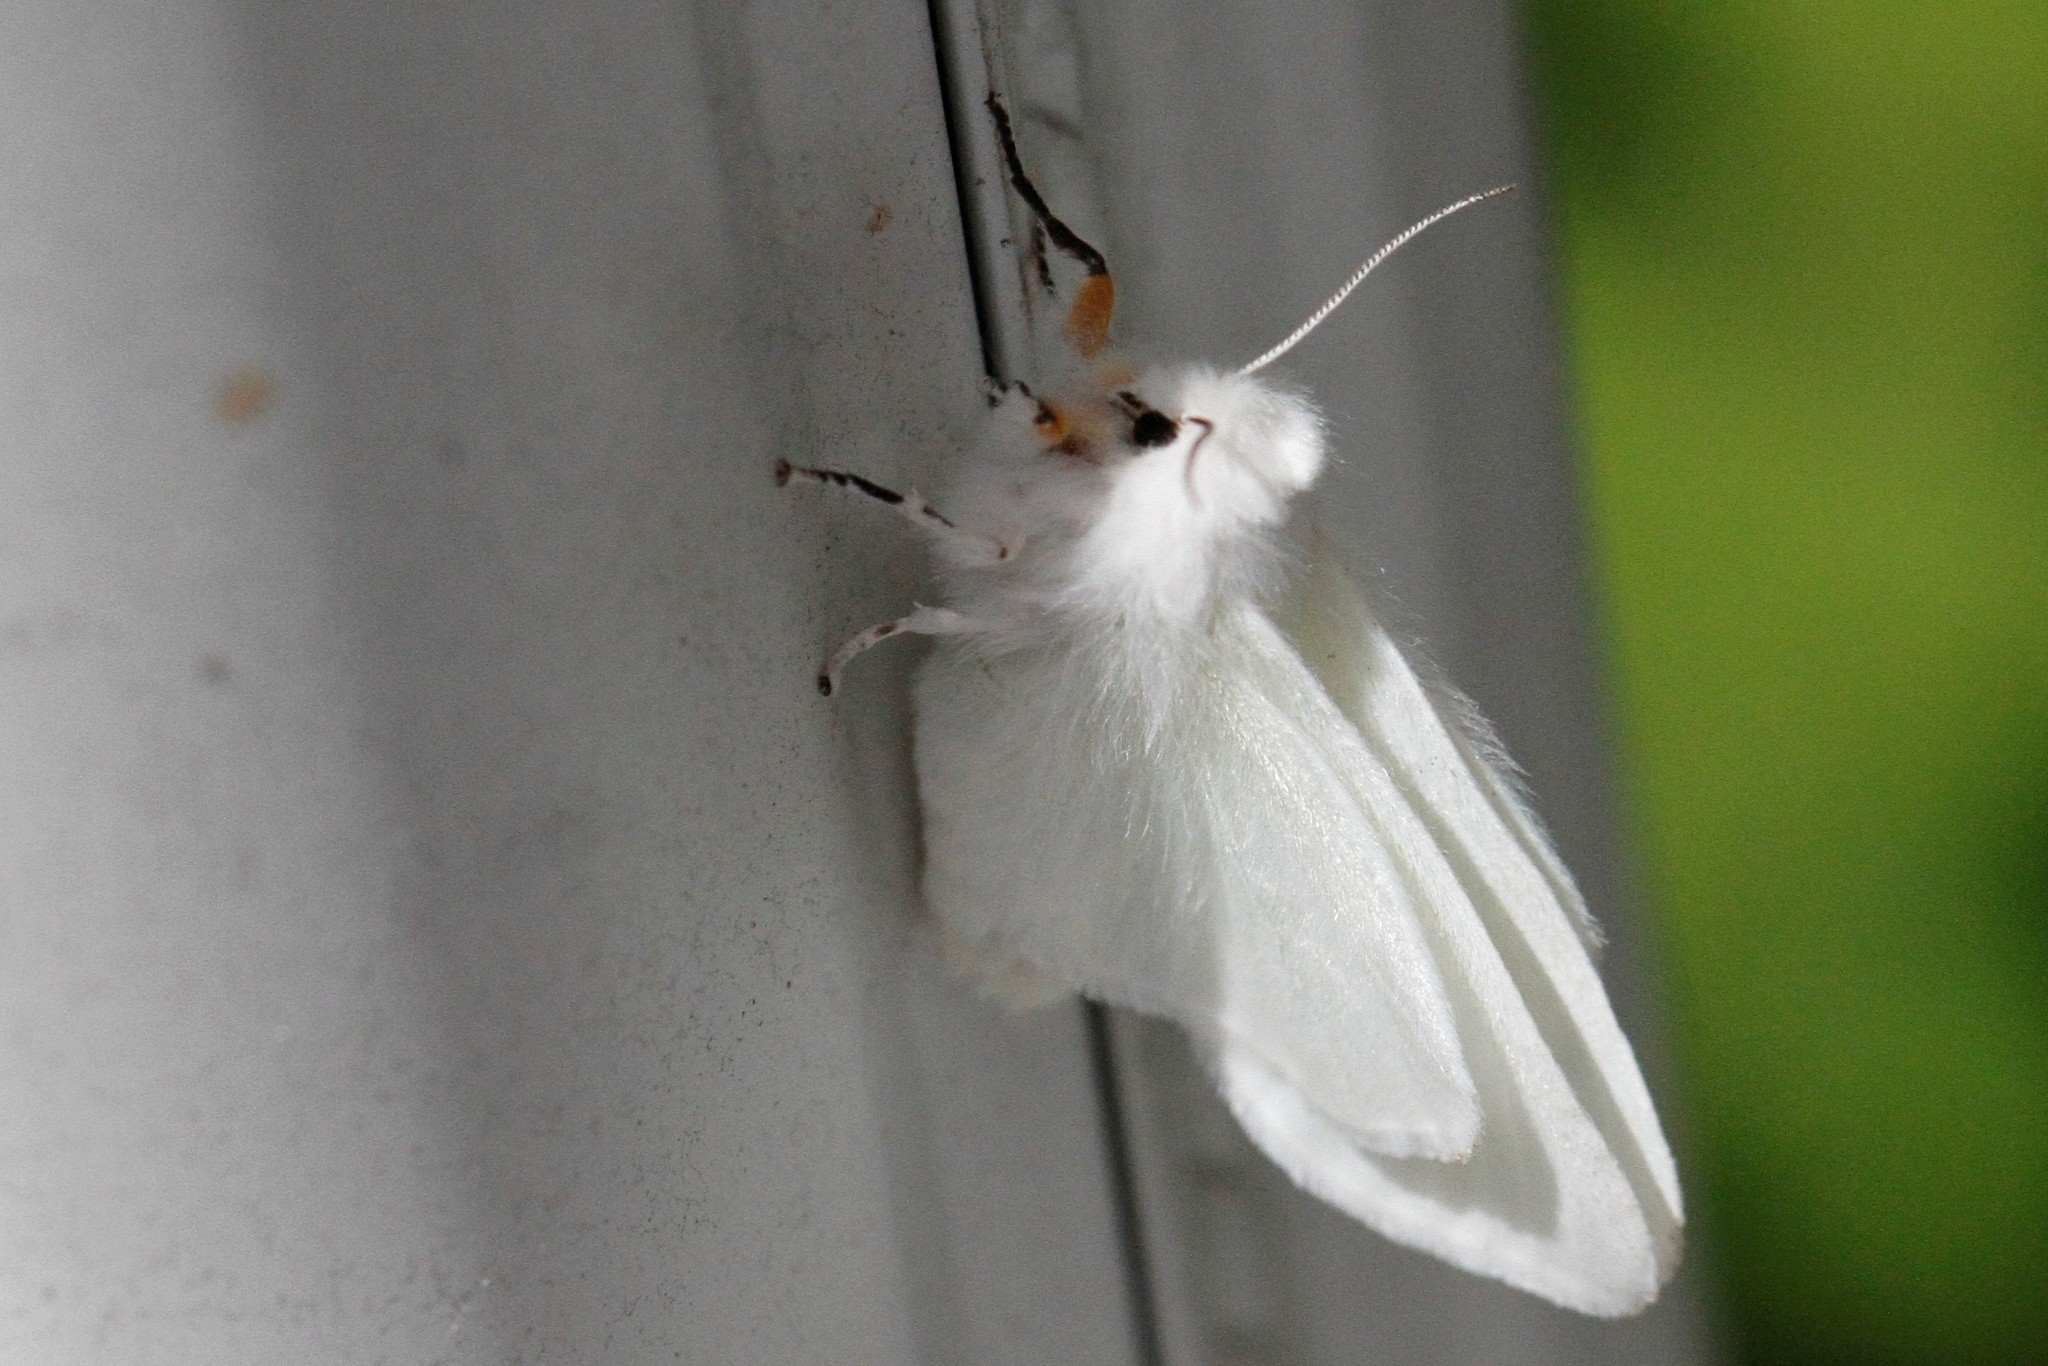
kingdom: Animalia
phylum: Arthropoda
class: Insecta
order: Lepidoptera
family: Erebidae
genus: Hyphantria
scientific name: Hyphantria cunea
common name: American white moth
